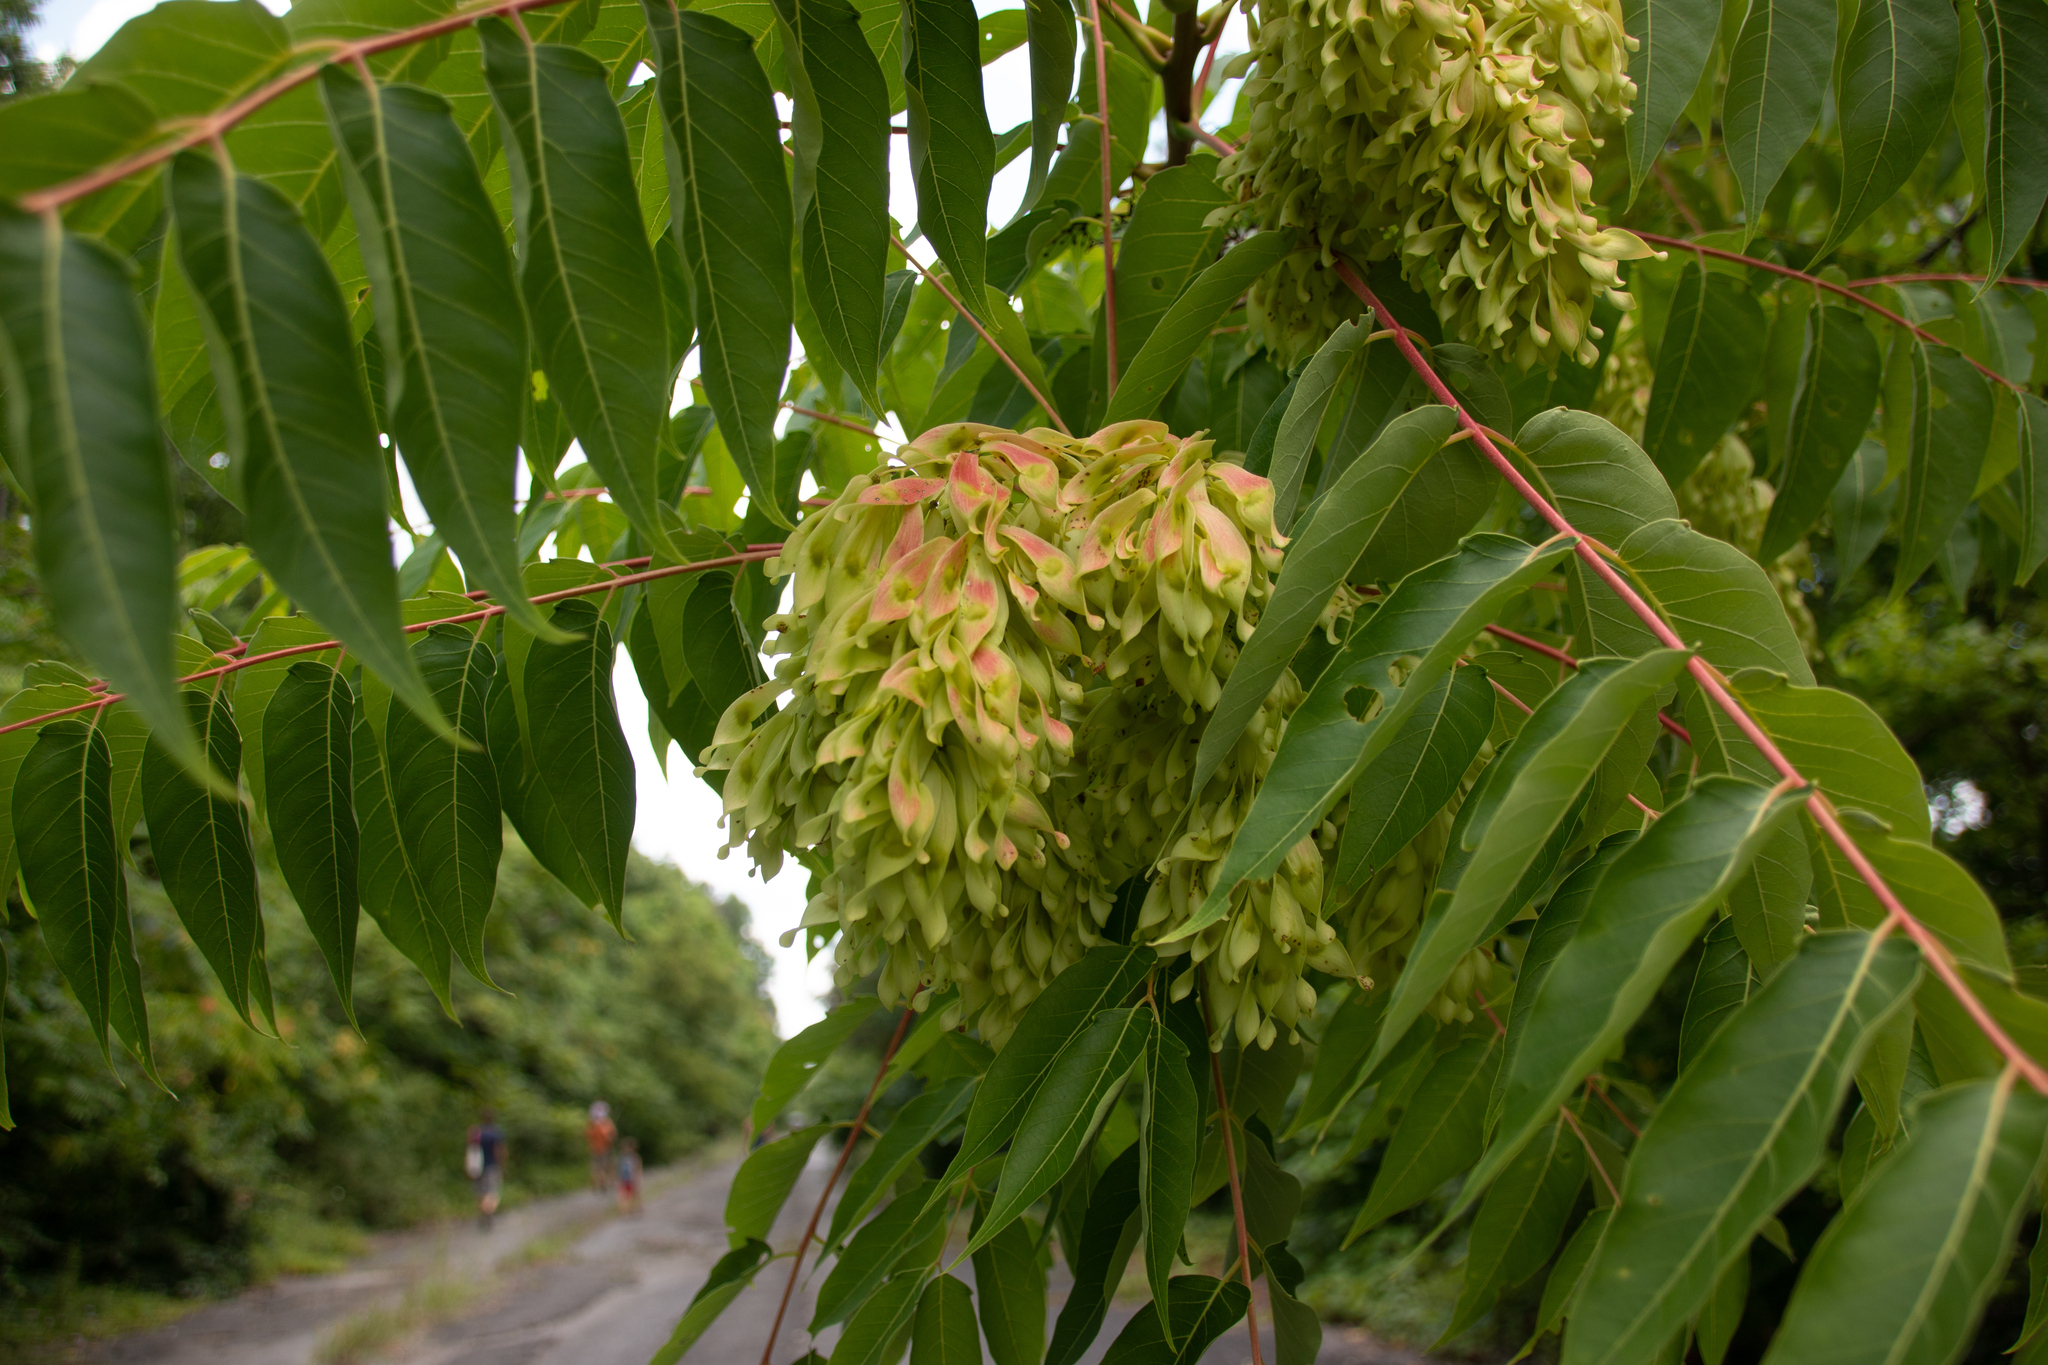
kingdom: Plantae
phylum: Tracheophyta
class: Magnoliopsida
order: Sapindales
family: Simaroubaceae
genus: Ailanthus
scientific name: Ailanthus altissima
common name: Tree-of-heaven
